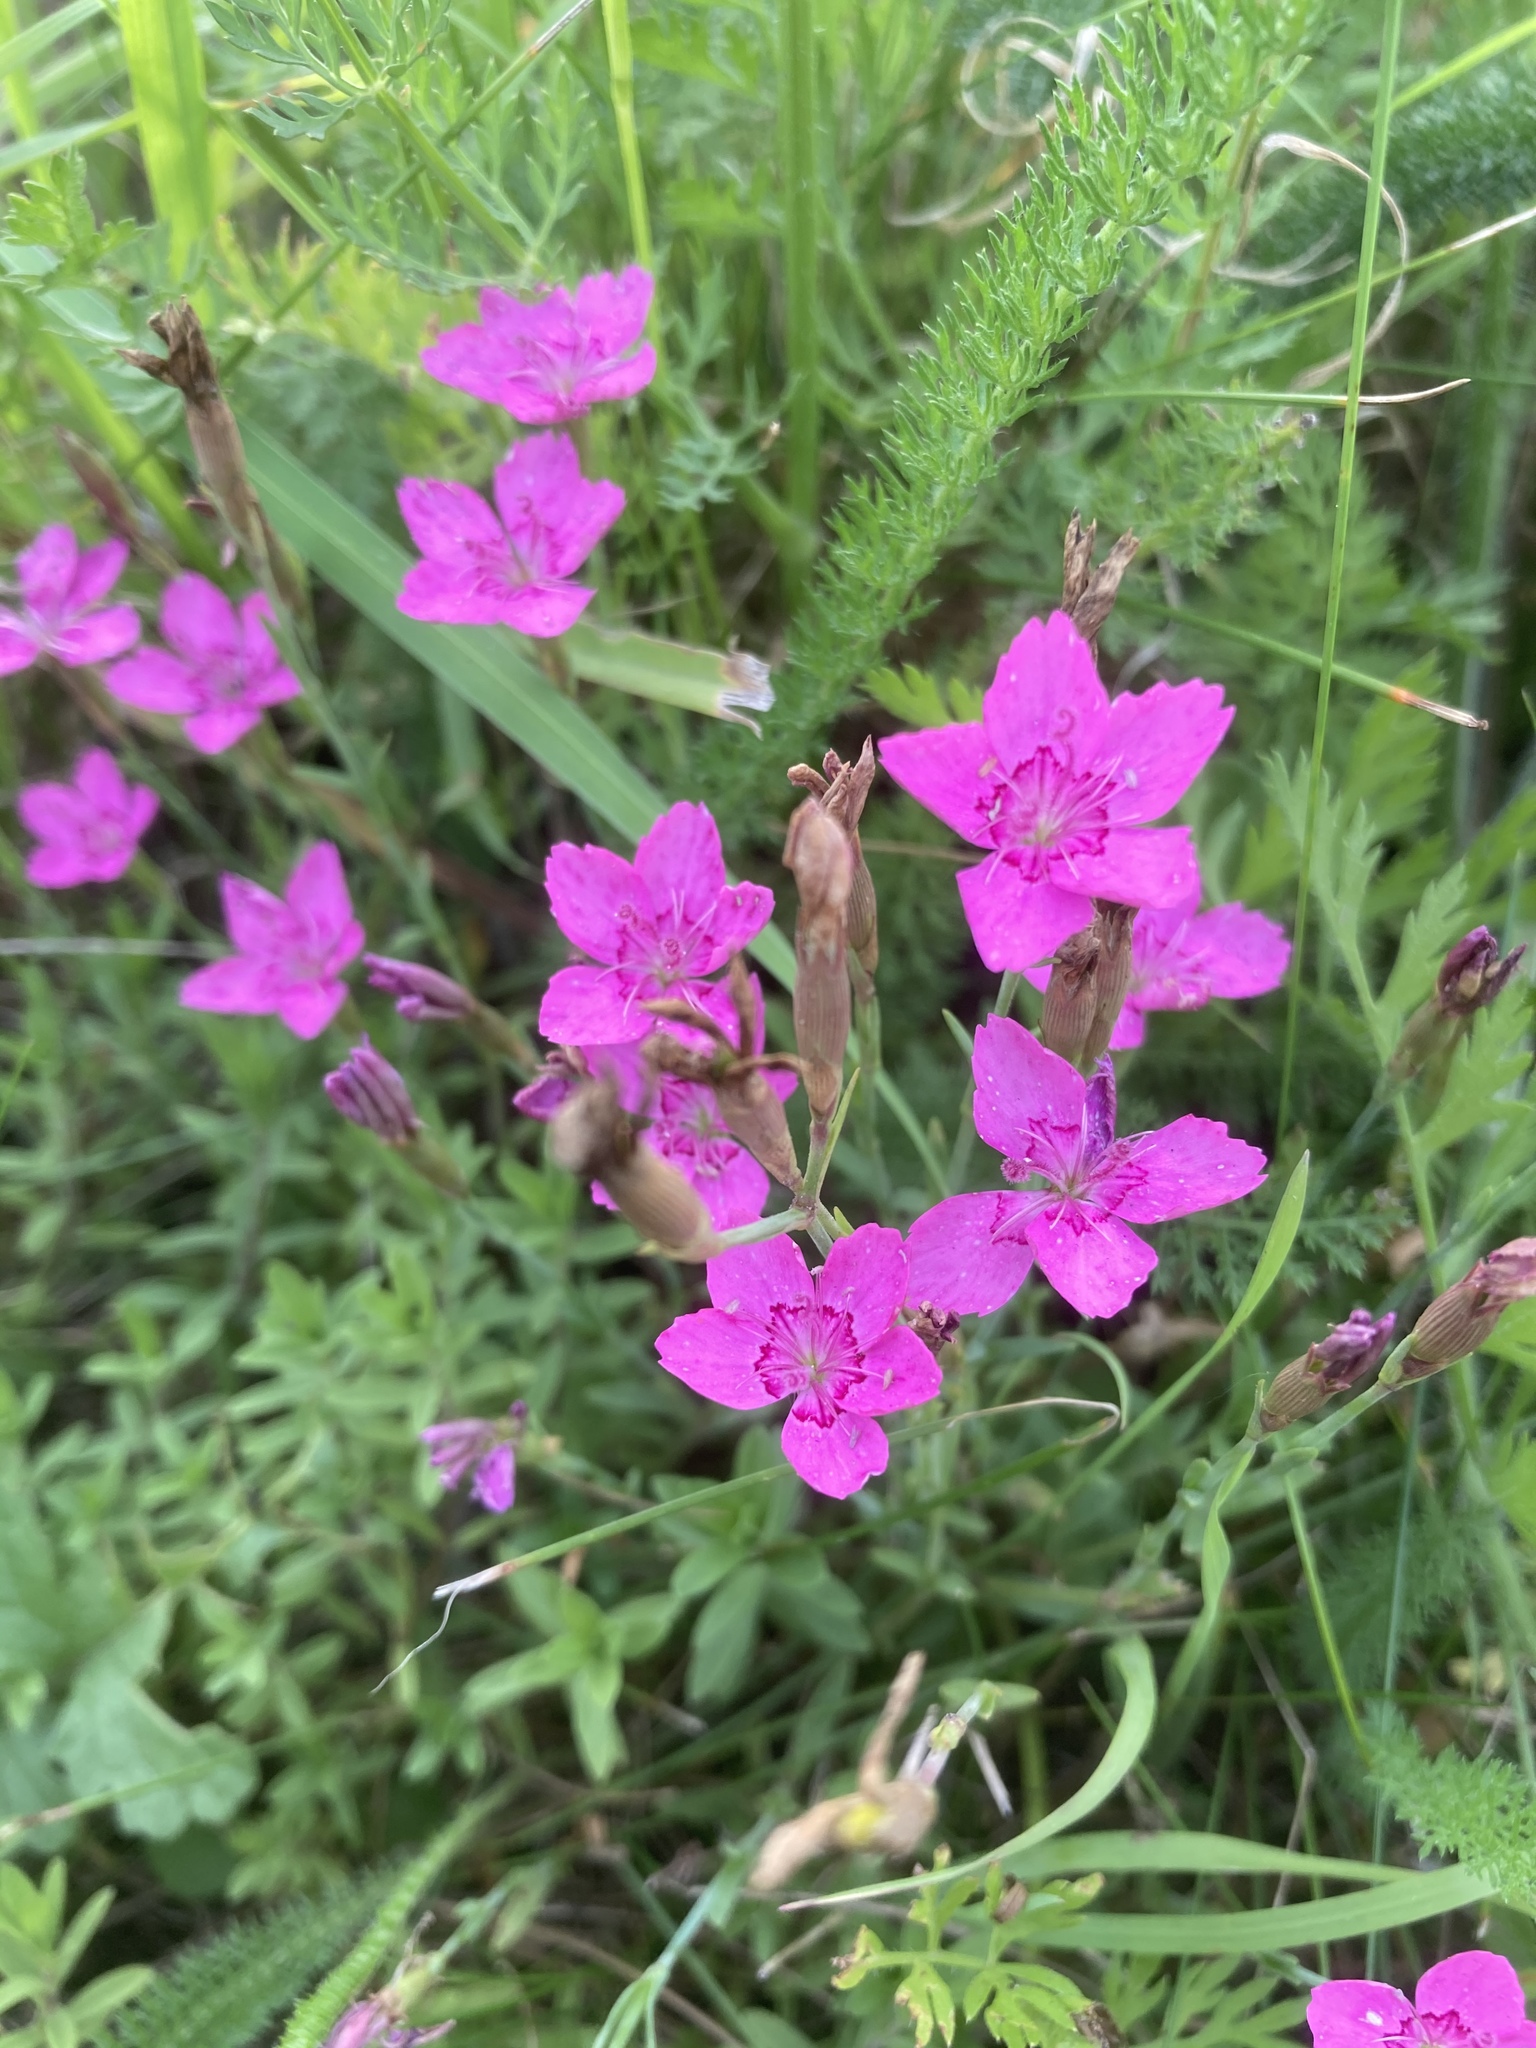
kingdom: Plantae
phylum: Tracheophyta
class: Magnoliopsida
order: Caryophyllales
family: Caryophyllaceae
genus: Dianthus
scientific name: Dianthus deltoides
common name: Maiden pink
